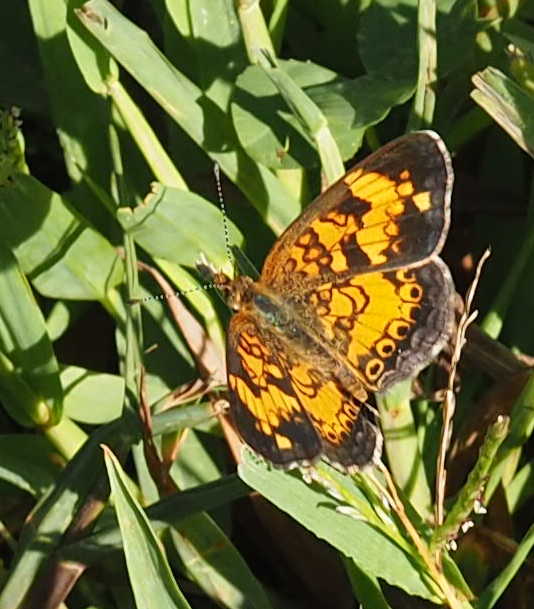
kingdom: Animalia
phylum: Arthropoda
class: Insecta
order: Lepidoptera
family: Nymphalidae
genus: Phyciodes
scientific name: Phyciodes tharos
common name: Pearl crescent
